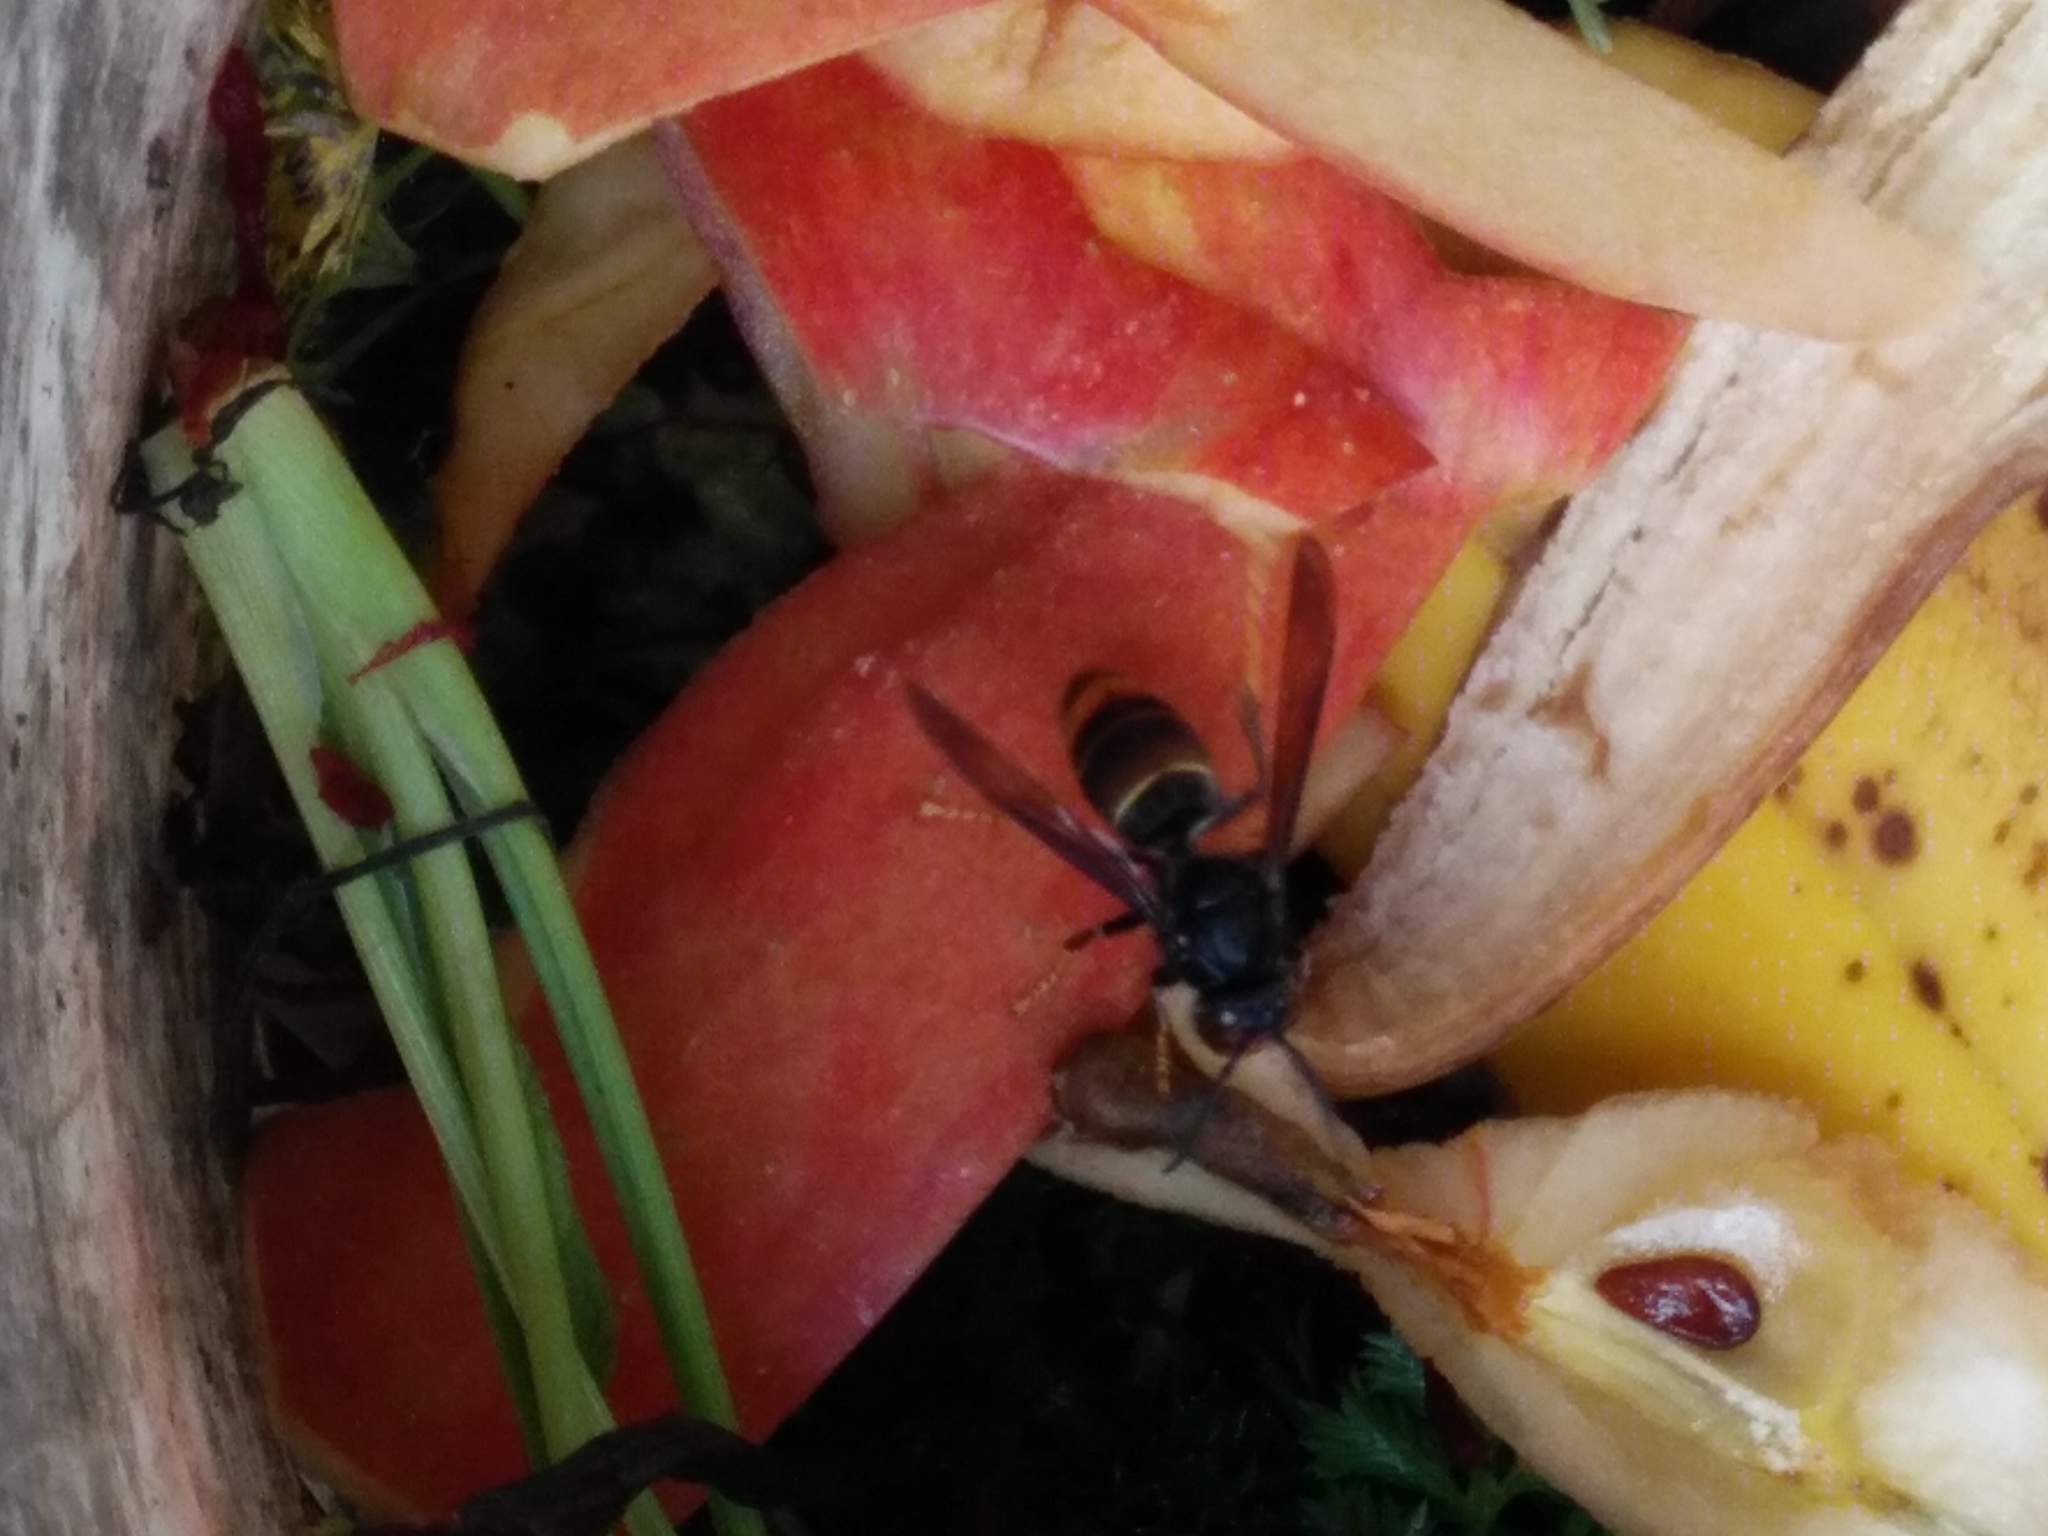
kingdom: Animalia
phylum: Arthropoda
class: Insecta
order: Hymenoptera
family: Vespidae
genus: Vespa
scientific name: Vespa velutina
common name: Asian hornet
